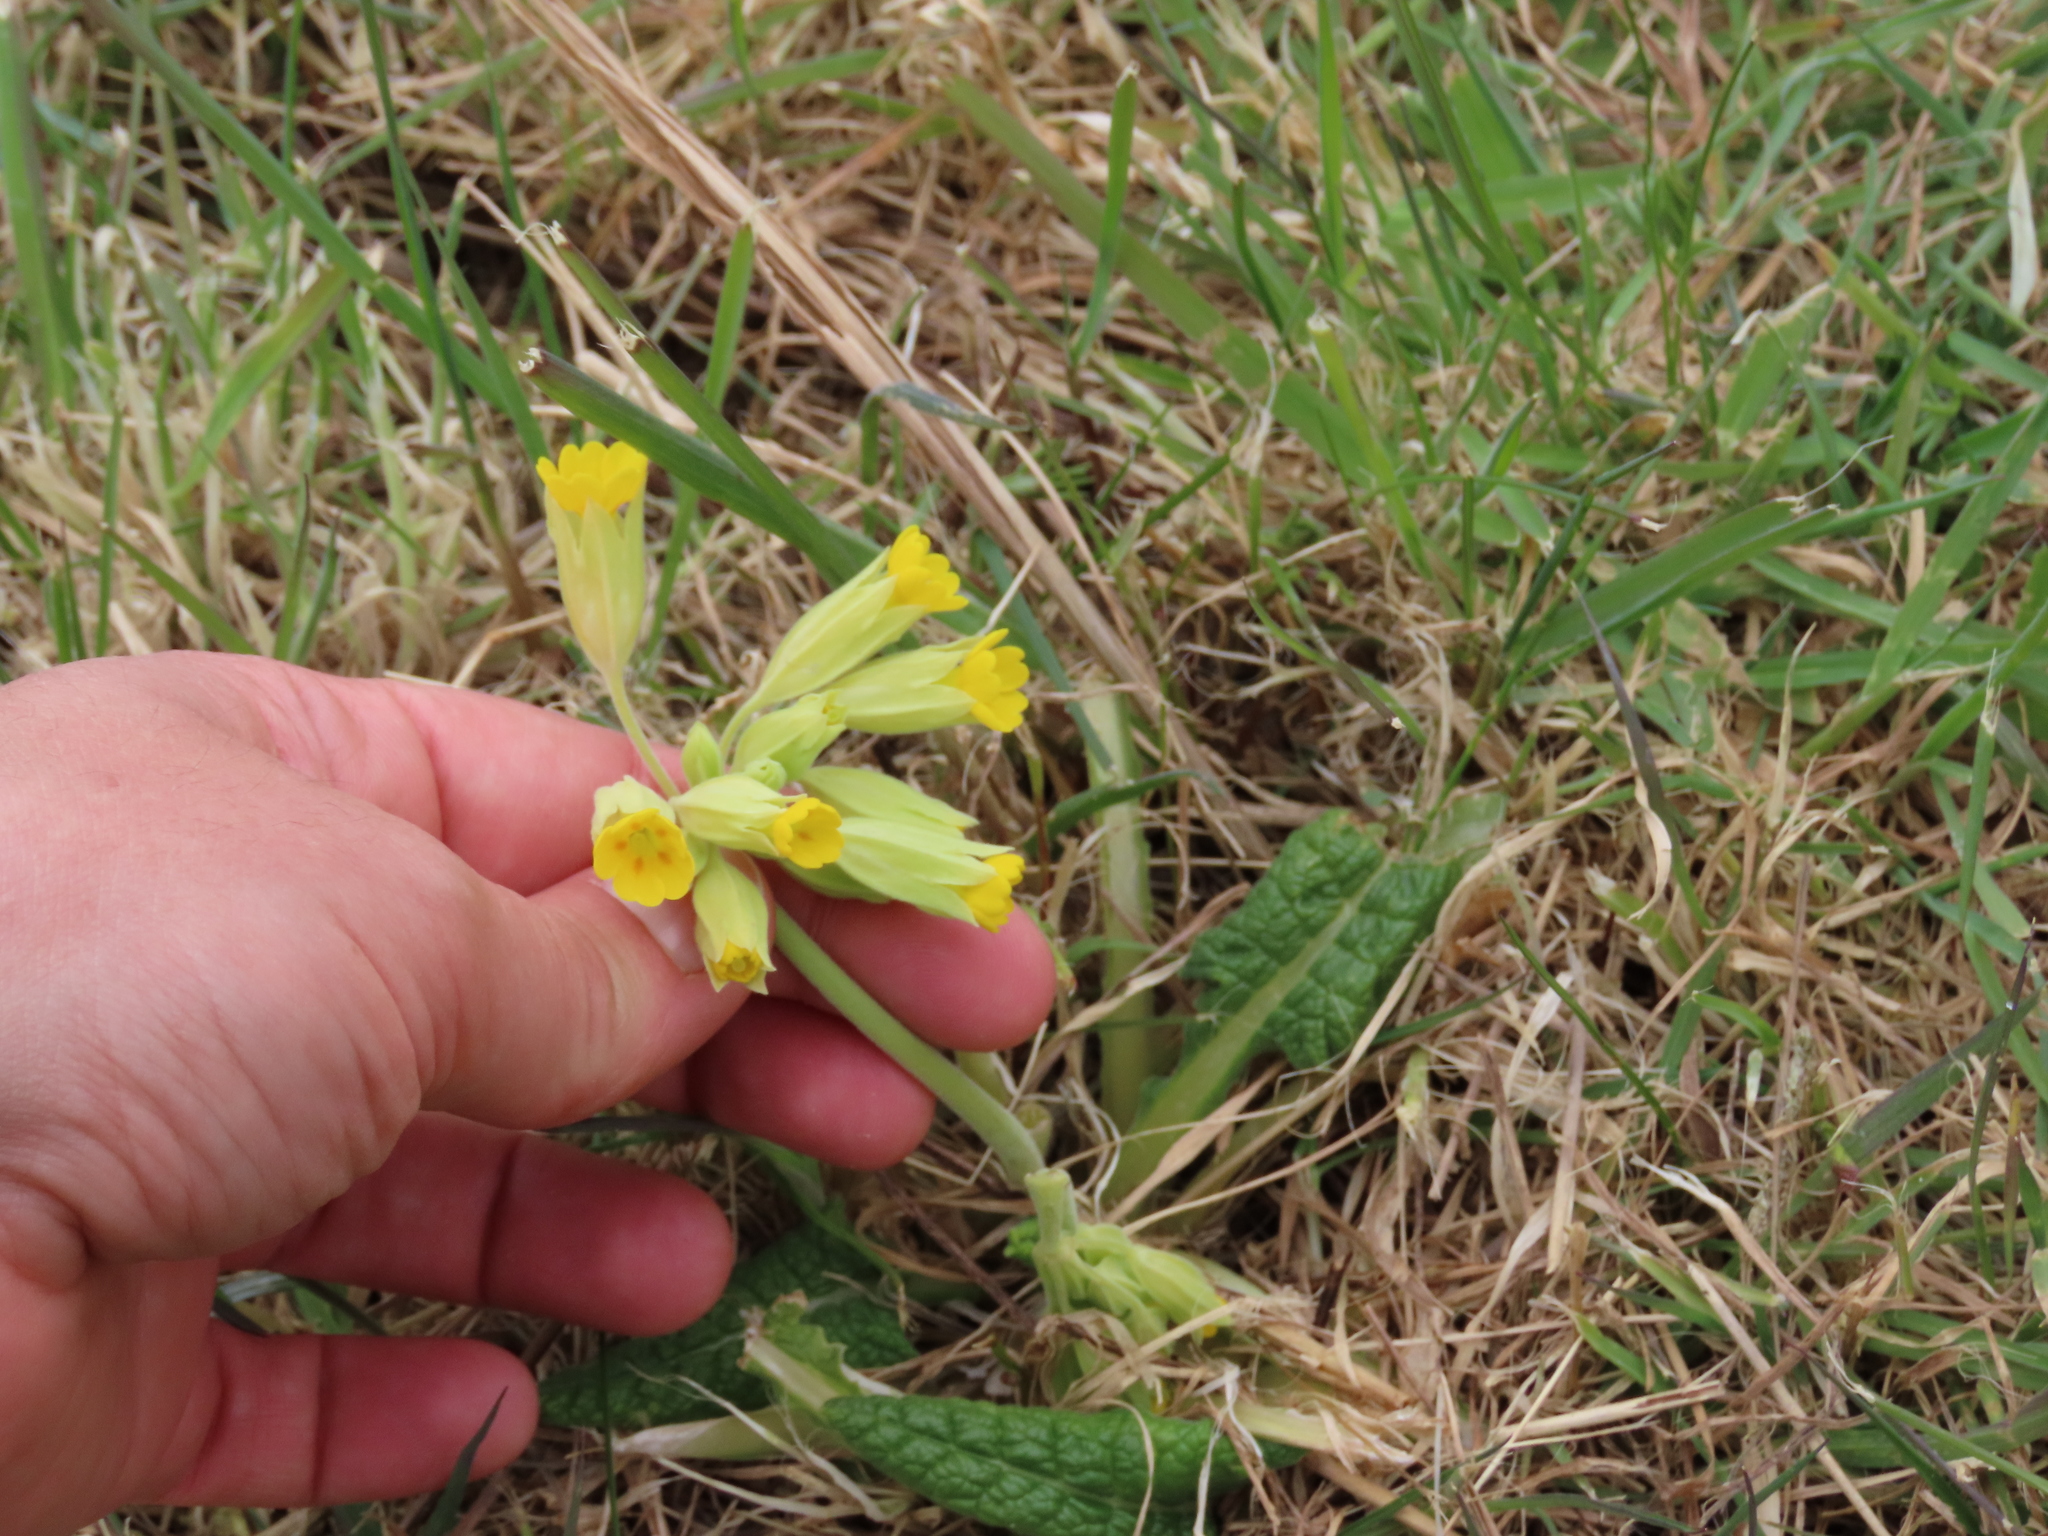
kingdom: Plantae
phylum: Tracheophyta
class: Magnoliopsida
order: Ericales
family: Primulaceae
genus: Primula
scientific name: Primula veris
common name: Cowslip
